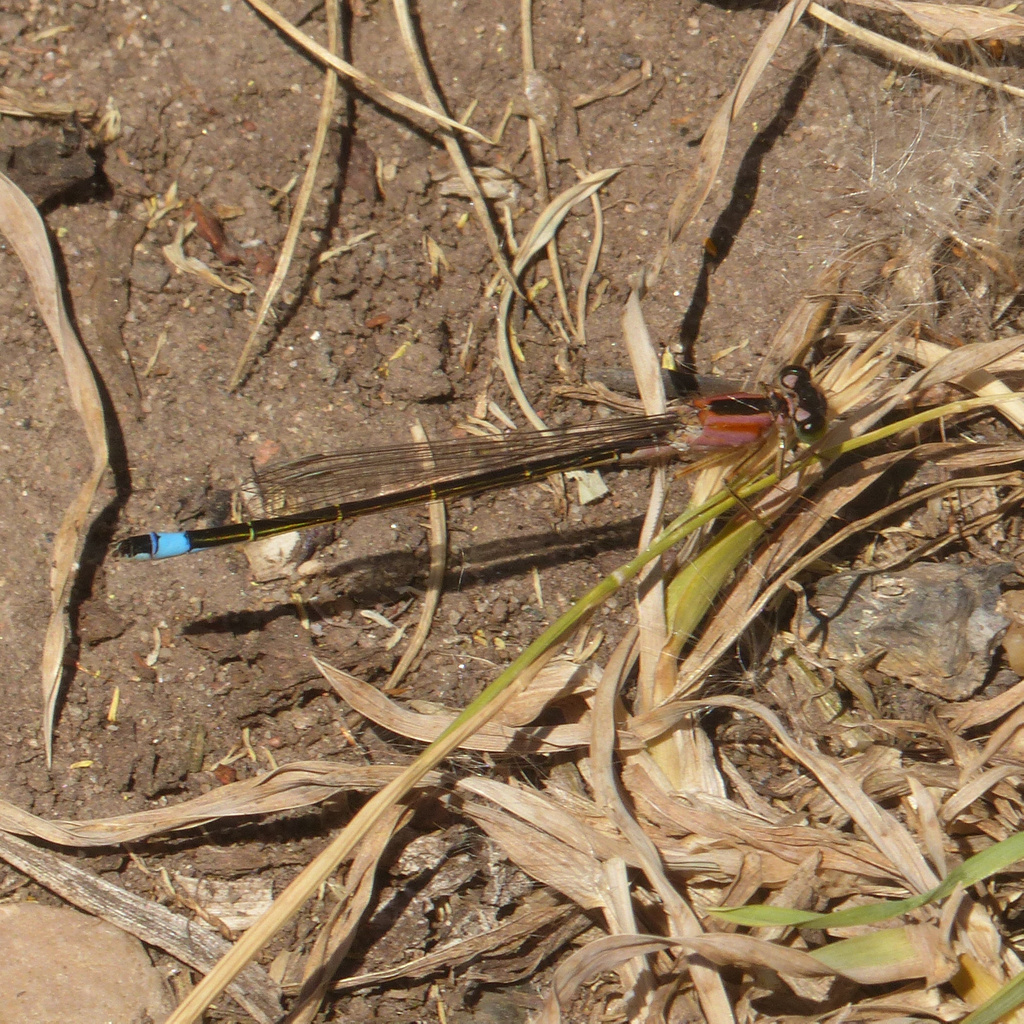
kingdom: Animalia
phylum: Arthropoda
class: Insecta
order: Odonata
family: Coenagrionidae
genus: Ischnura
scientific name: Ischnura elegans
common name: Blue-tailed damselfly
